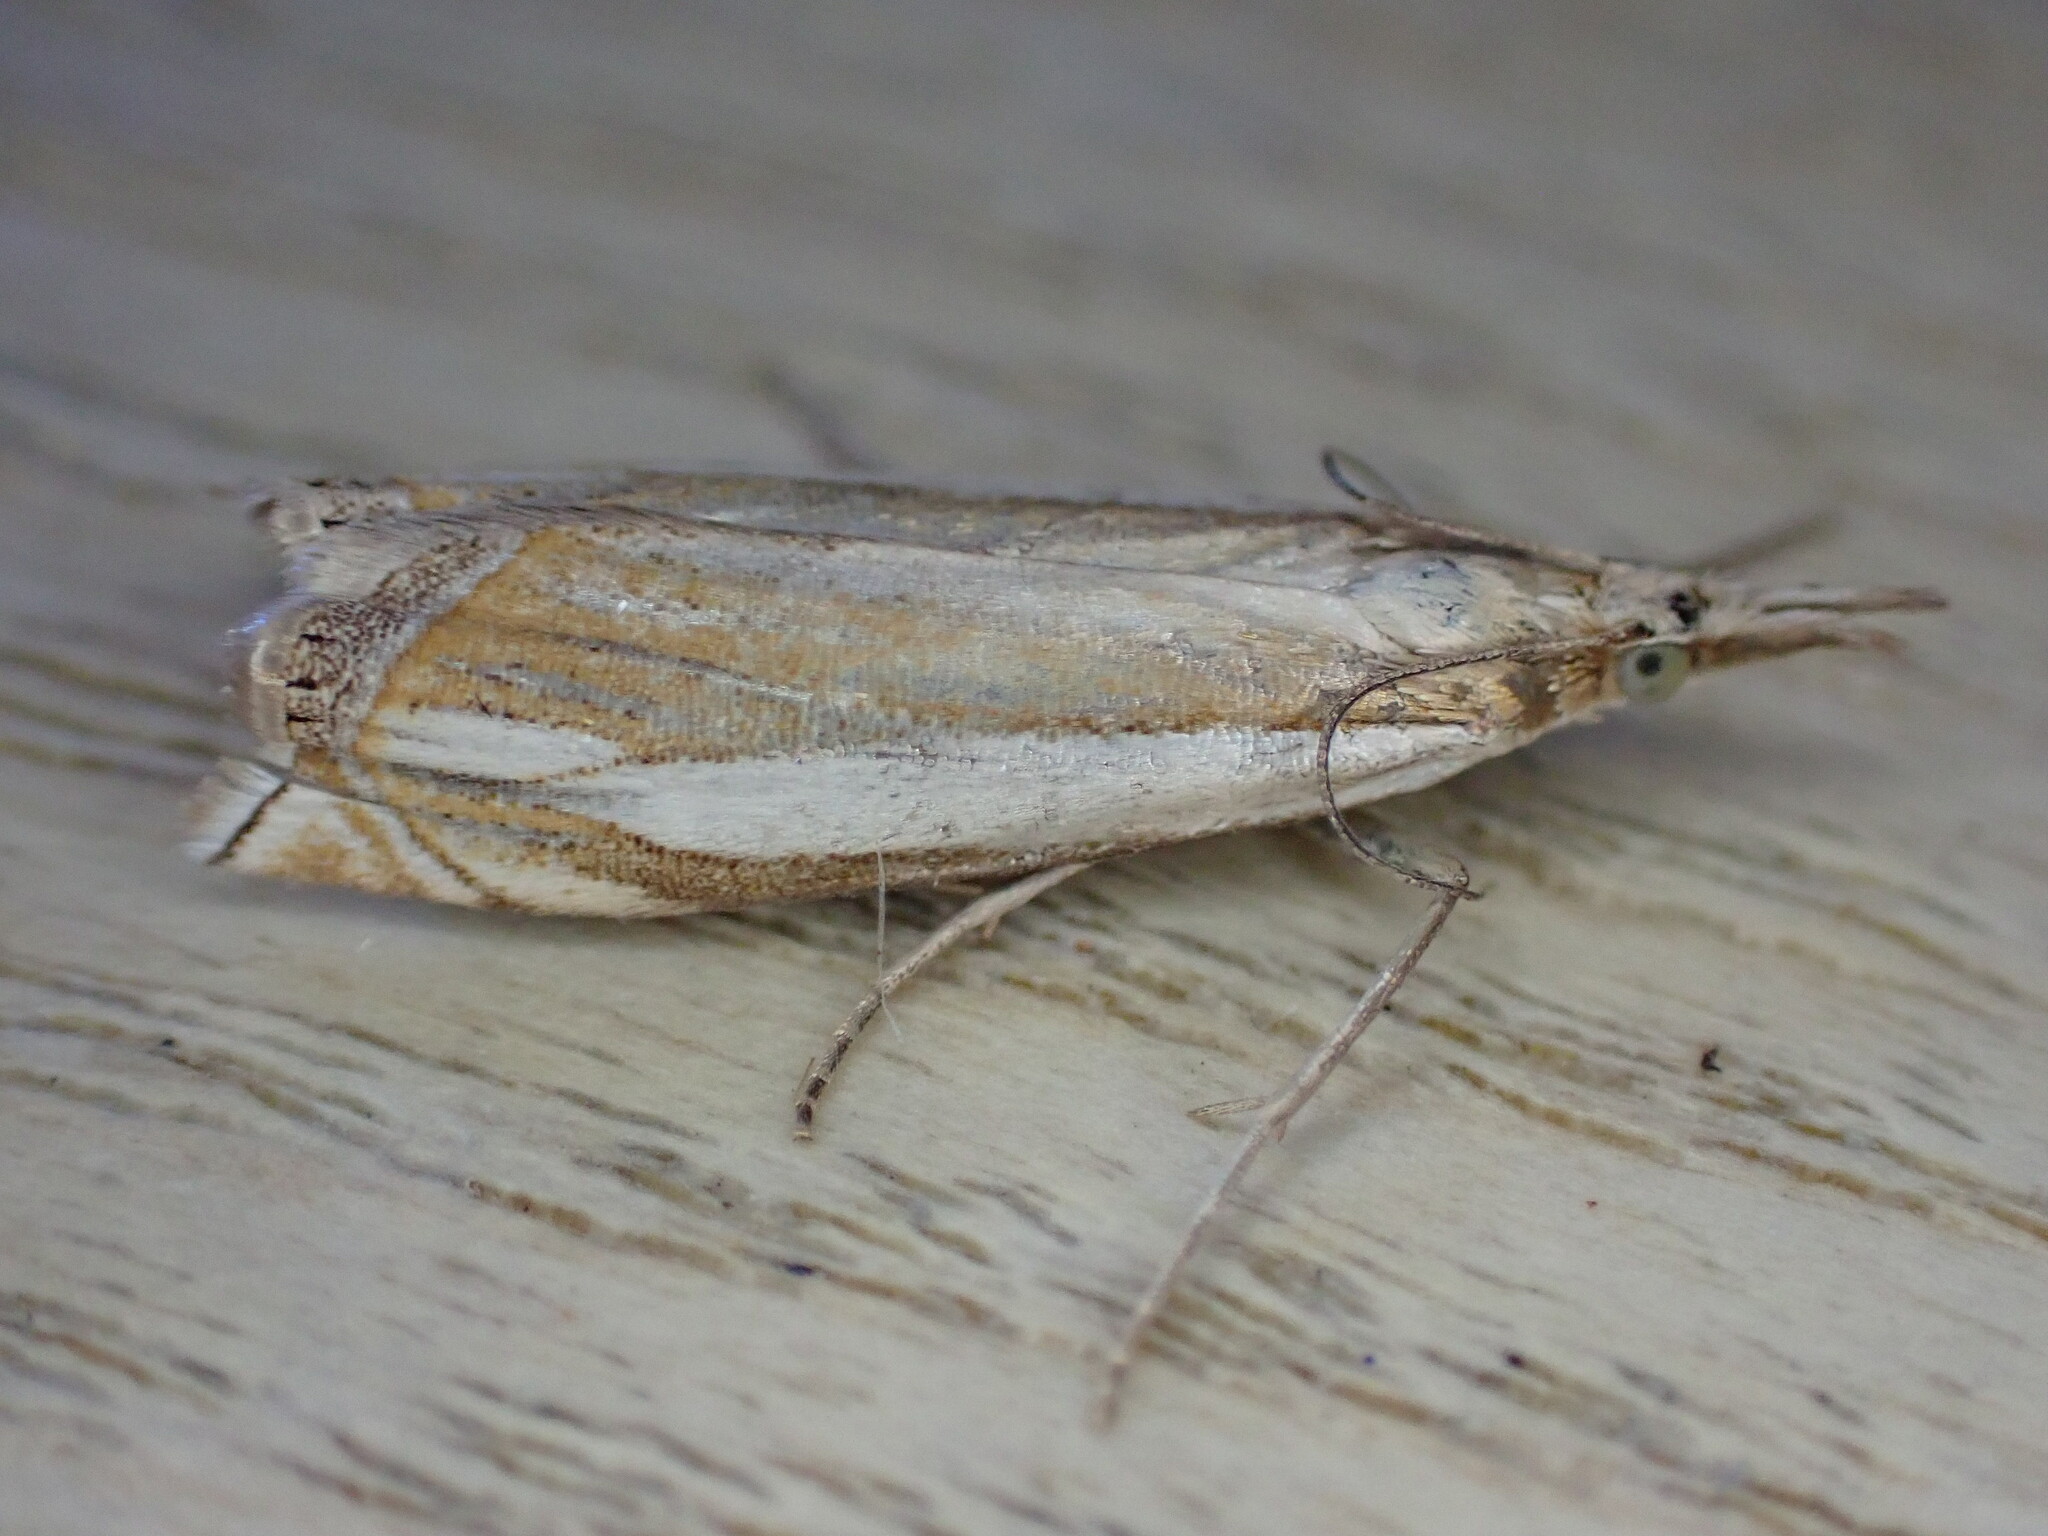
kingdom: Animalia
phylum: Arthropoda
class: Insecta
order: Lepidoptera
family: Crambidae
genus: Crambus
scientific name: Crambus pascuella
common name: Inlaid grass-veneer
